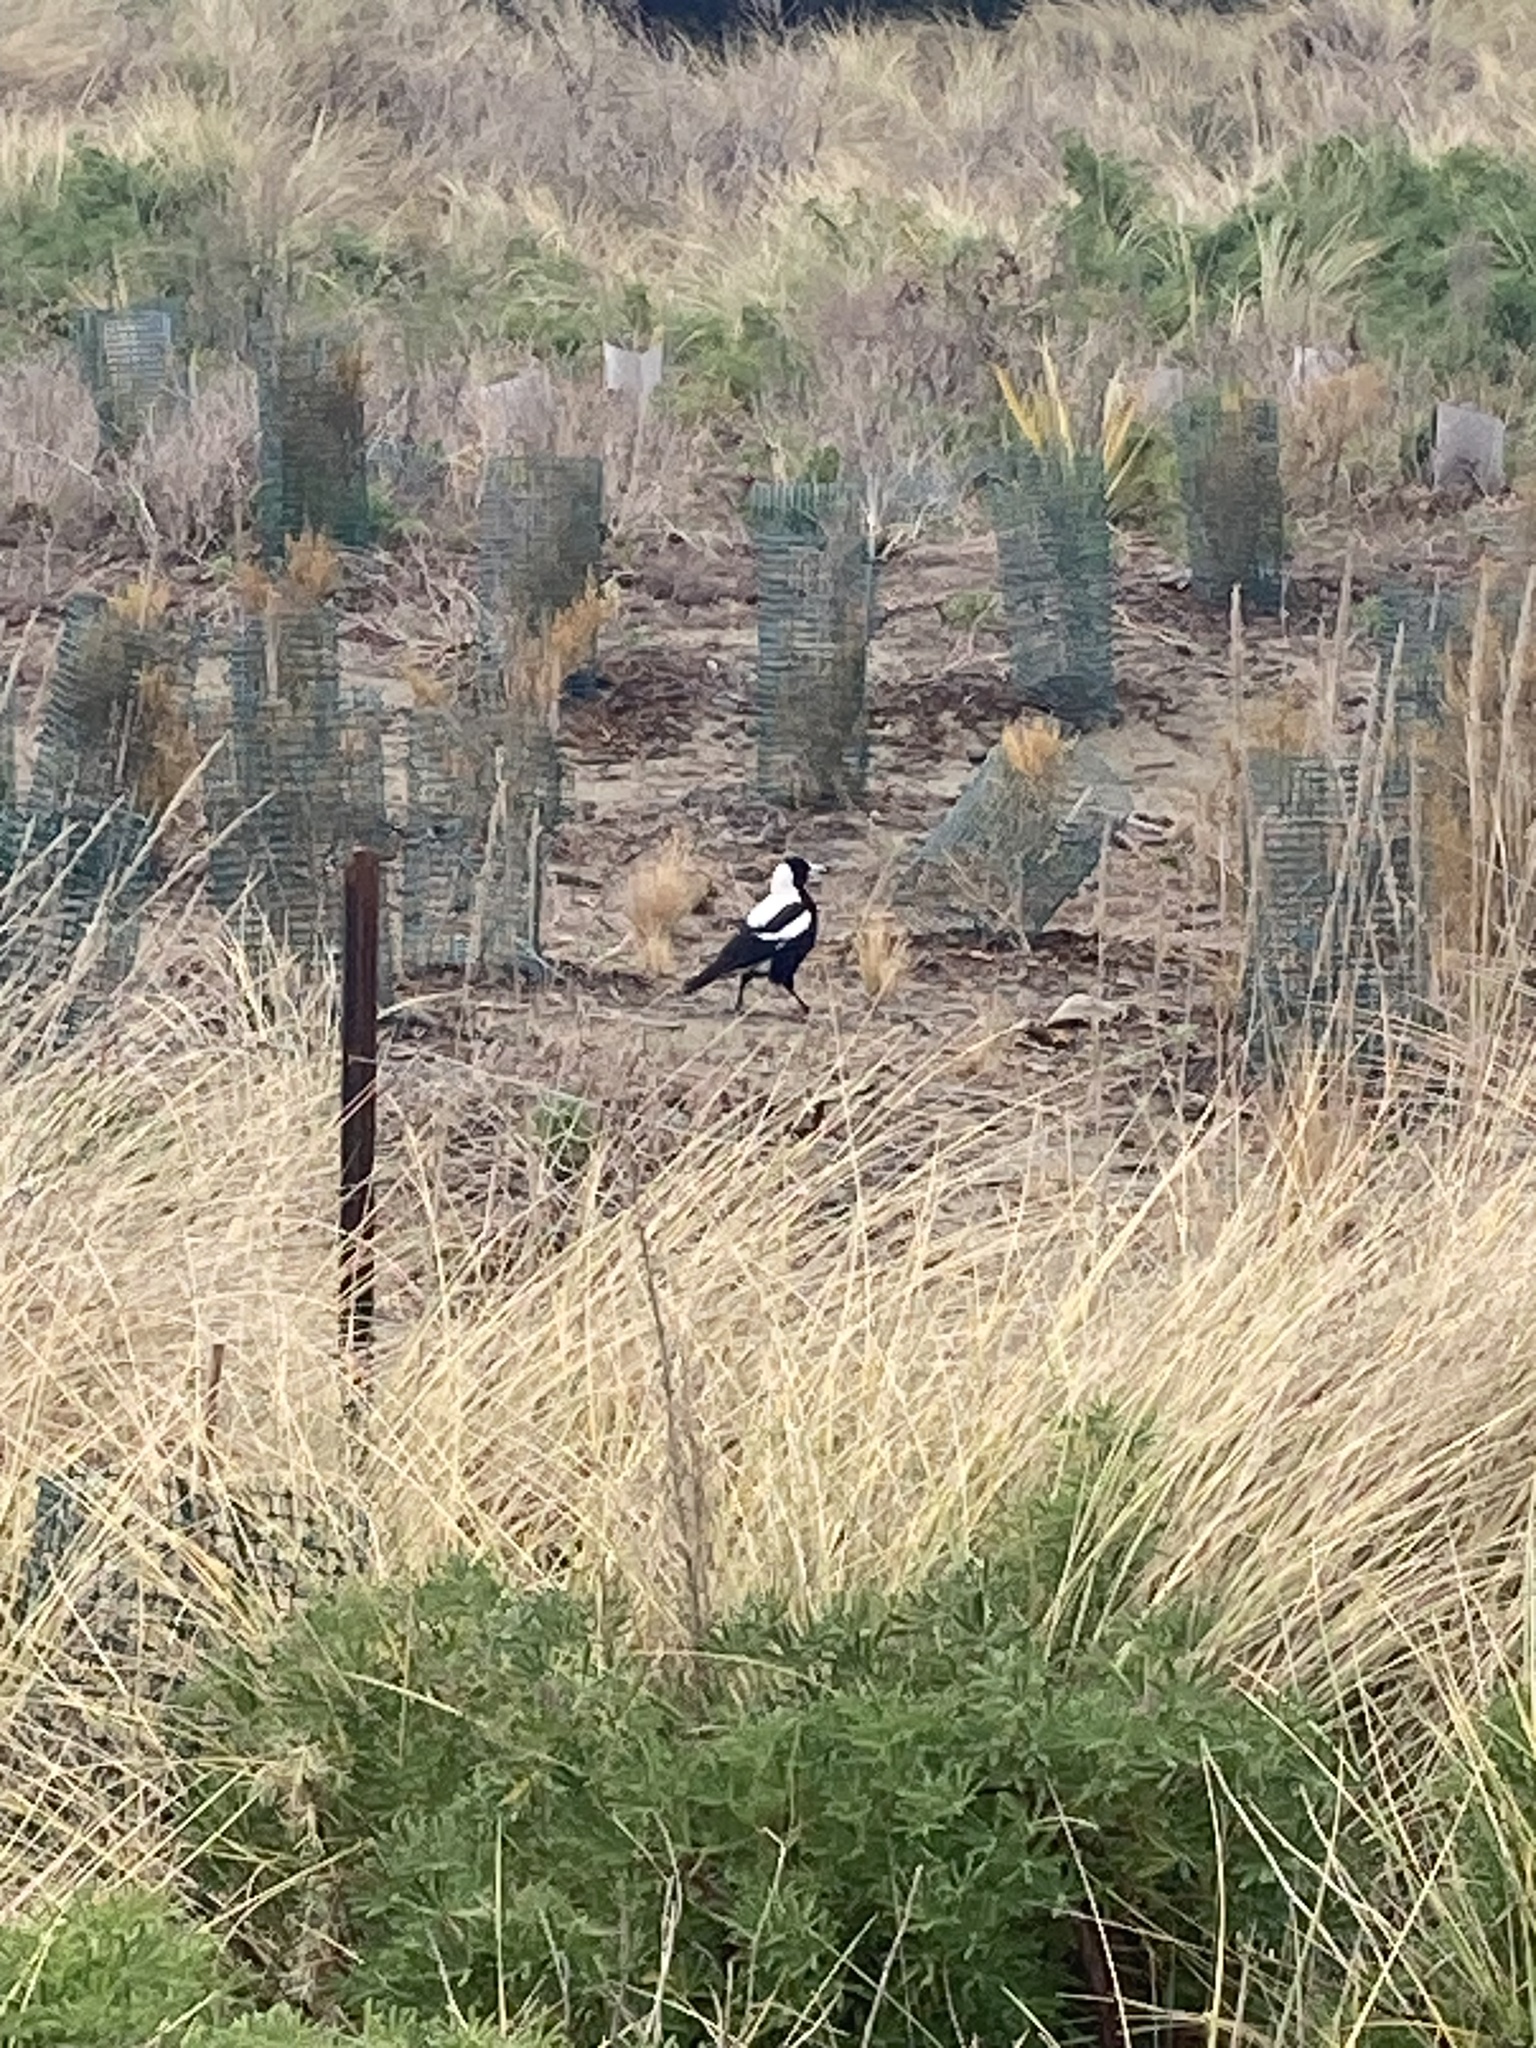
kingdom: Animalia
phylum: Chordata
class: Aves
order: Passeriformes
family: Cracticidae
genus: Gymnorhina
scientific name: Gymnorhina tibicen
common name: Australian magpie
